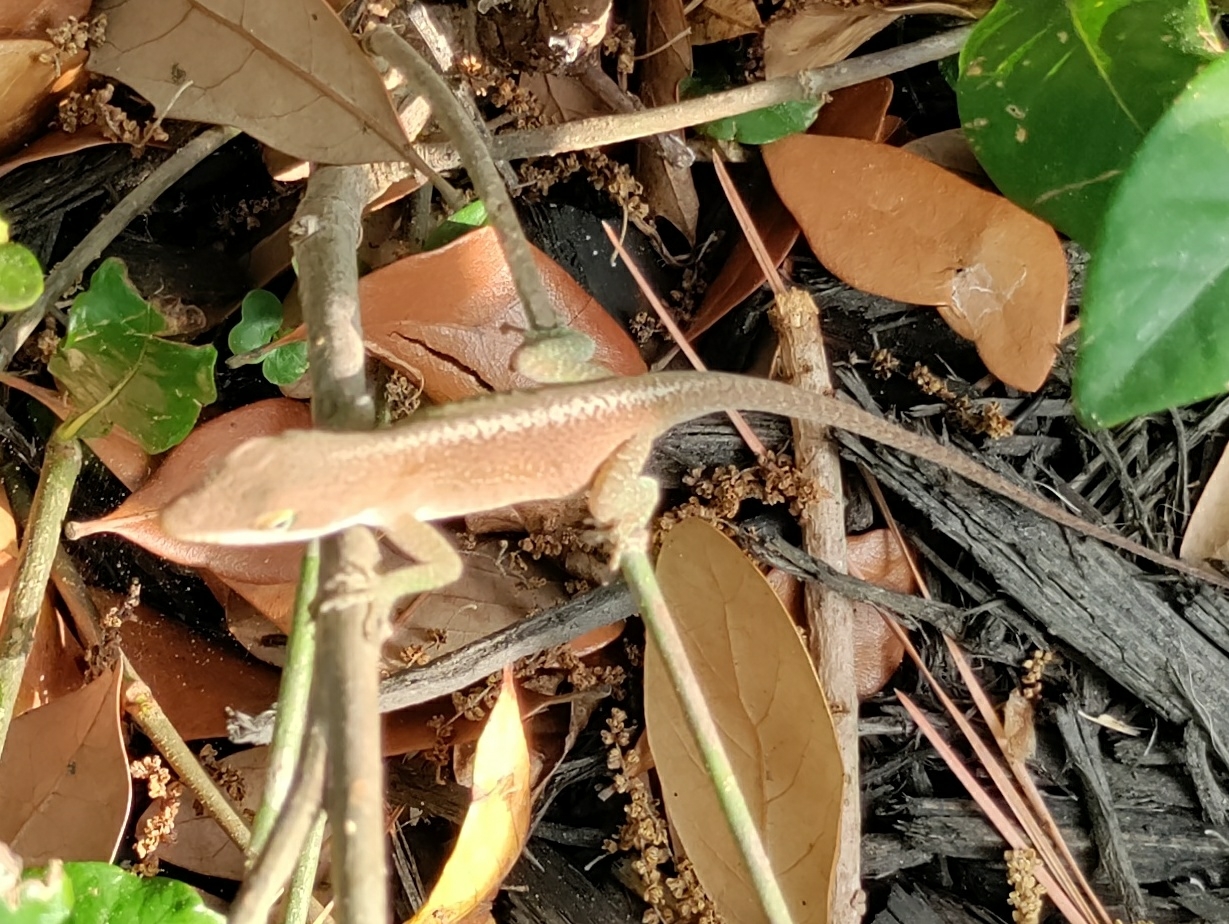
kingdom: Animalia
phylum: Chordata
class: Squamata
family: Dactyloidae
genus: Anolis
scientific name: Anolis carolinensis
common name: Green anole
